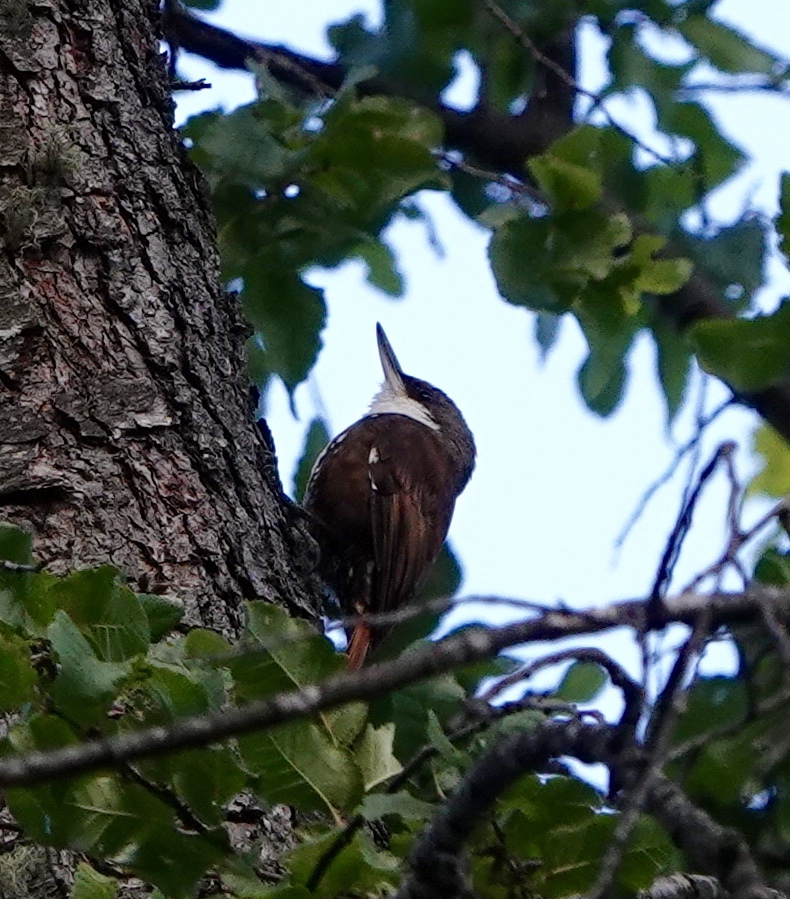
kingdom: Animalia
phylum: Chordata
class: Aves
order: Passeriformes
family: Furnariidae
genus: Pygarrhichas
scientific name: Pygarrhichas albogularis
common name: White-throated treerunner
